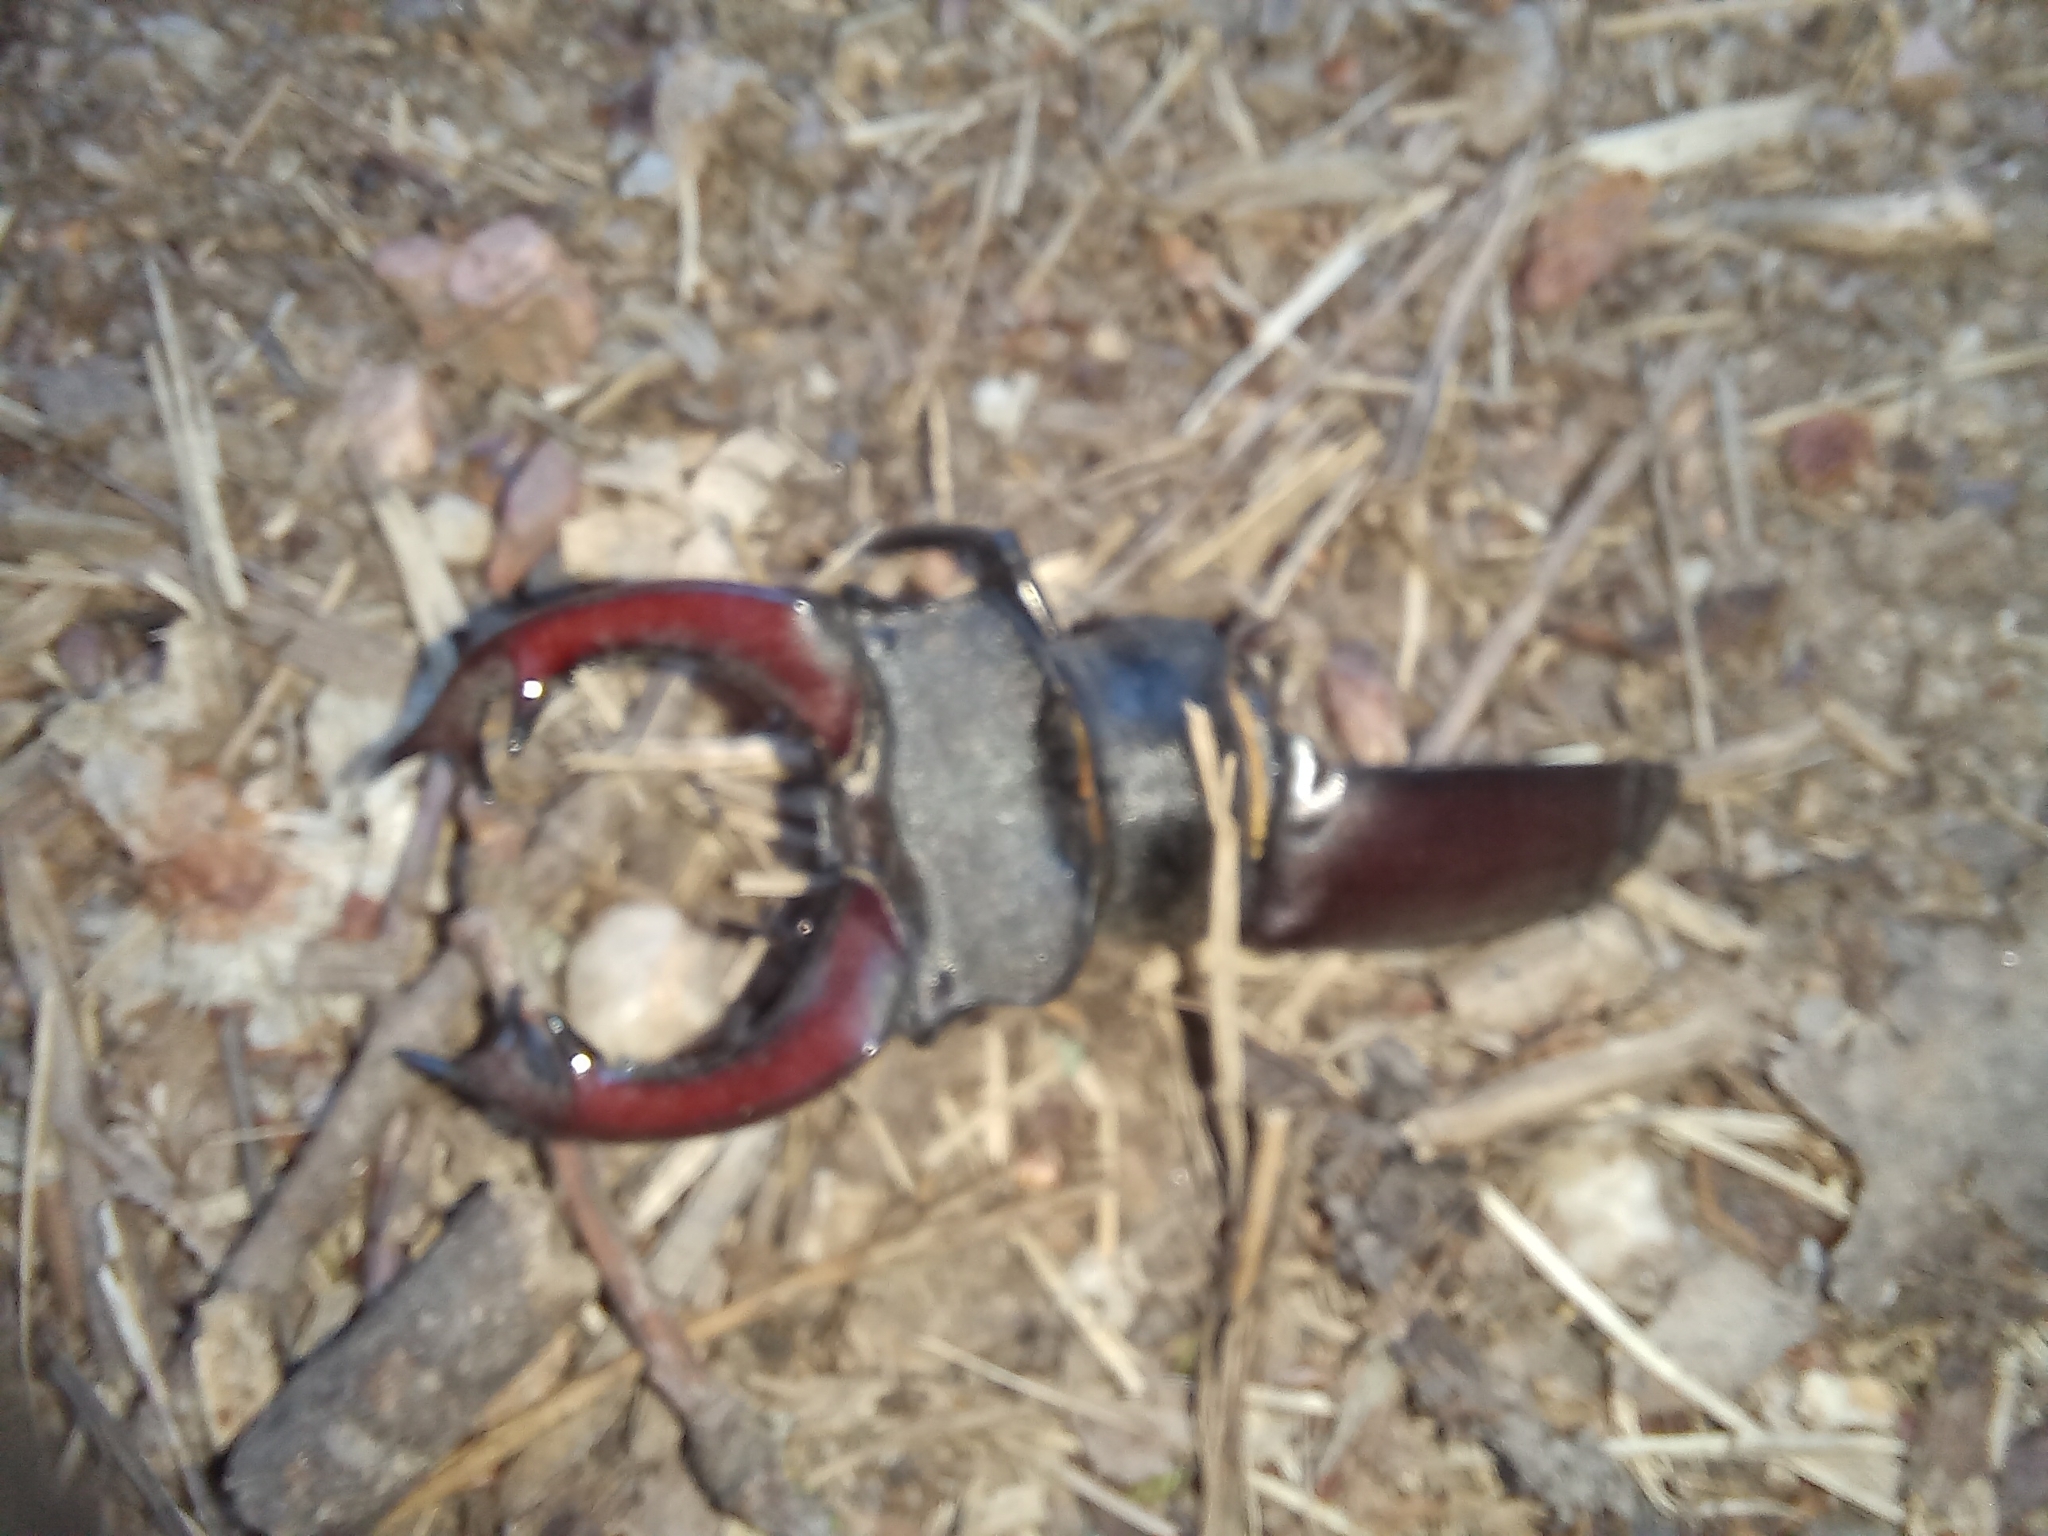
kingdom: Animalia
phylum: Arthropoda
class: Insecta
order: Coleoptera
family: Lucanidae
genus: Lucanus
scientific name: Lucanus cervus
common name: Stag beetle
